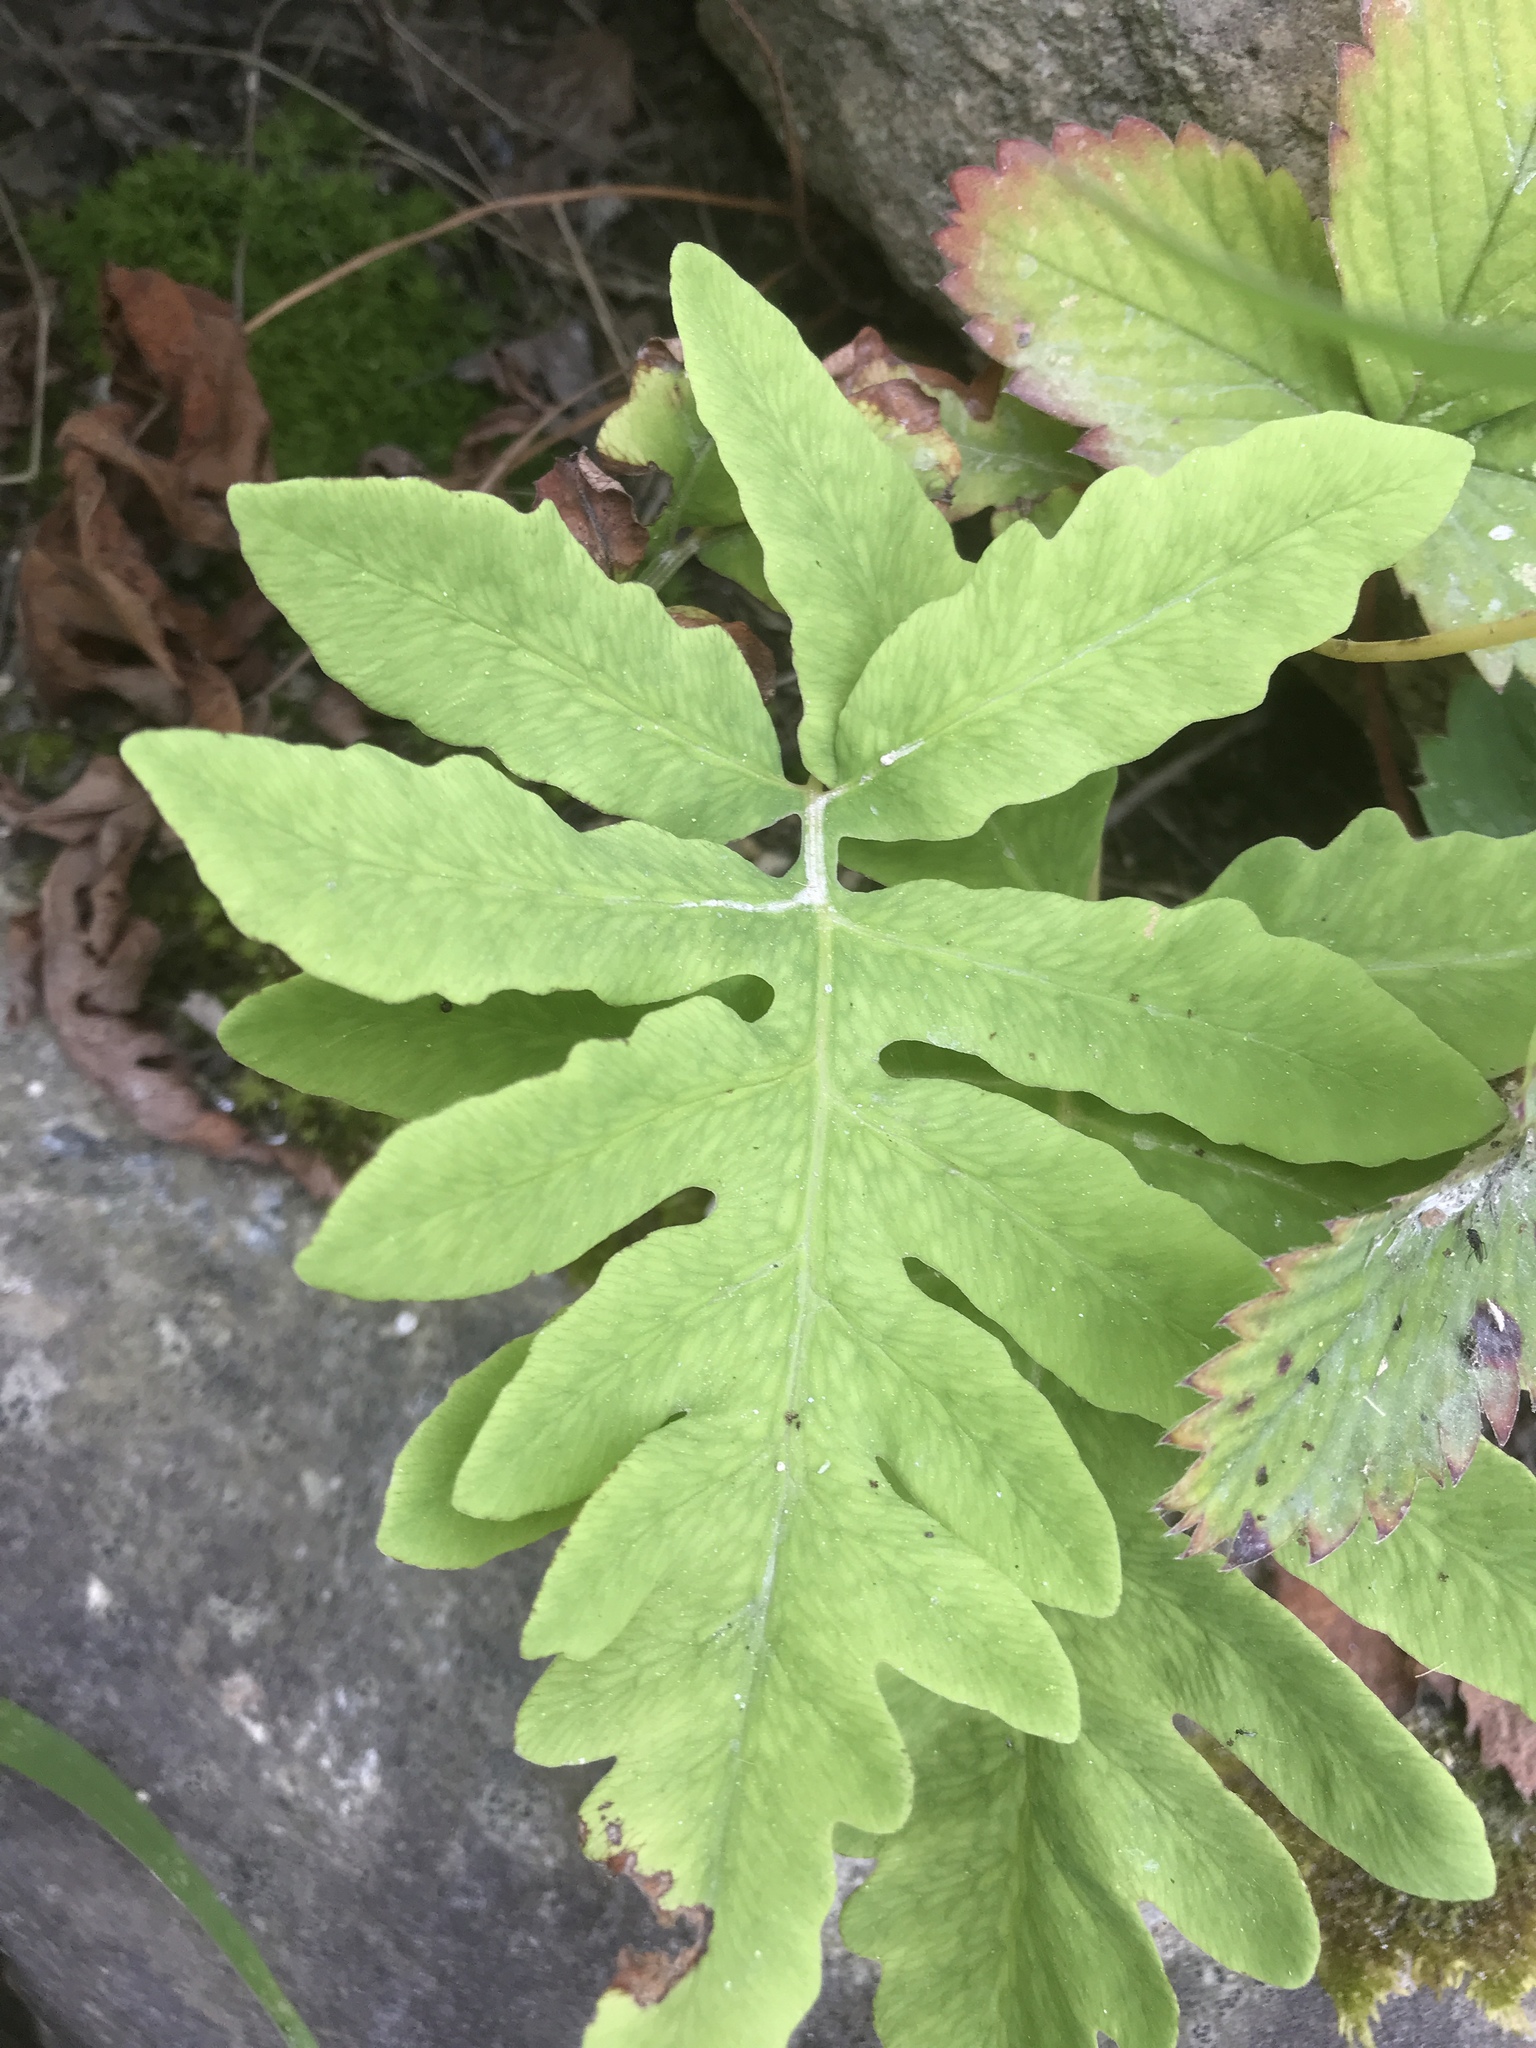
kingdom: Plantae
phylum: Tracheophyta
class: Polypodiopsida
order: Polypodiales
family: Onocleaceae
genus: Onoclea
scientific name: Onoclea sensibilis
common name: Sensitive fern
